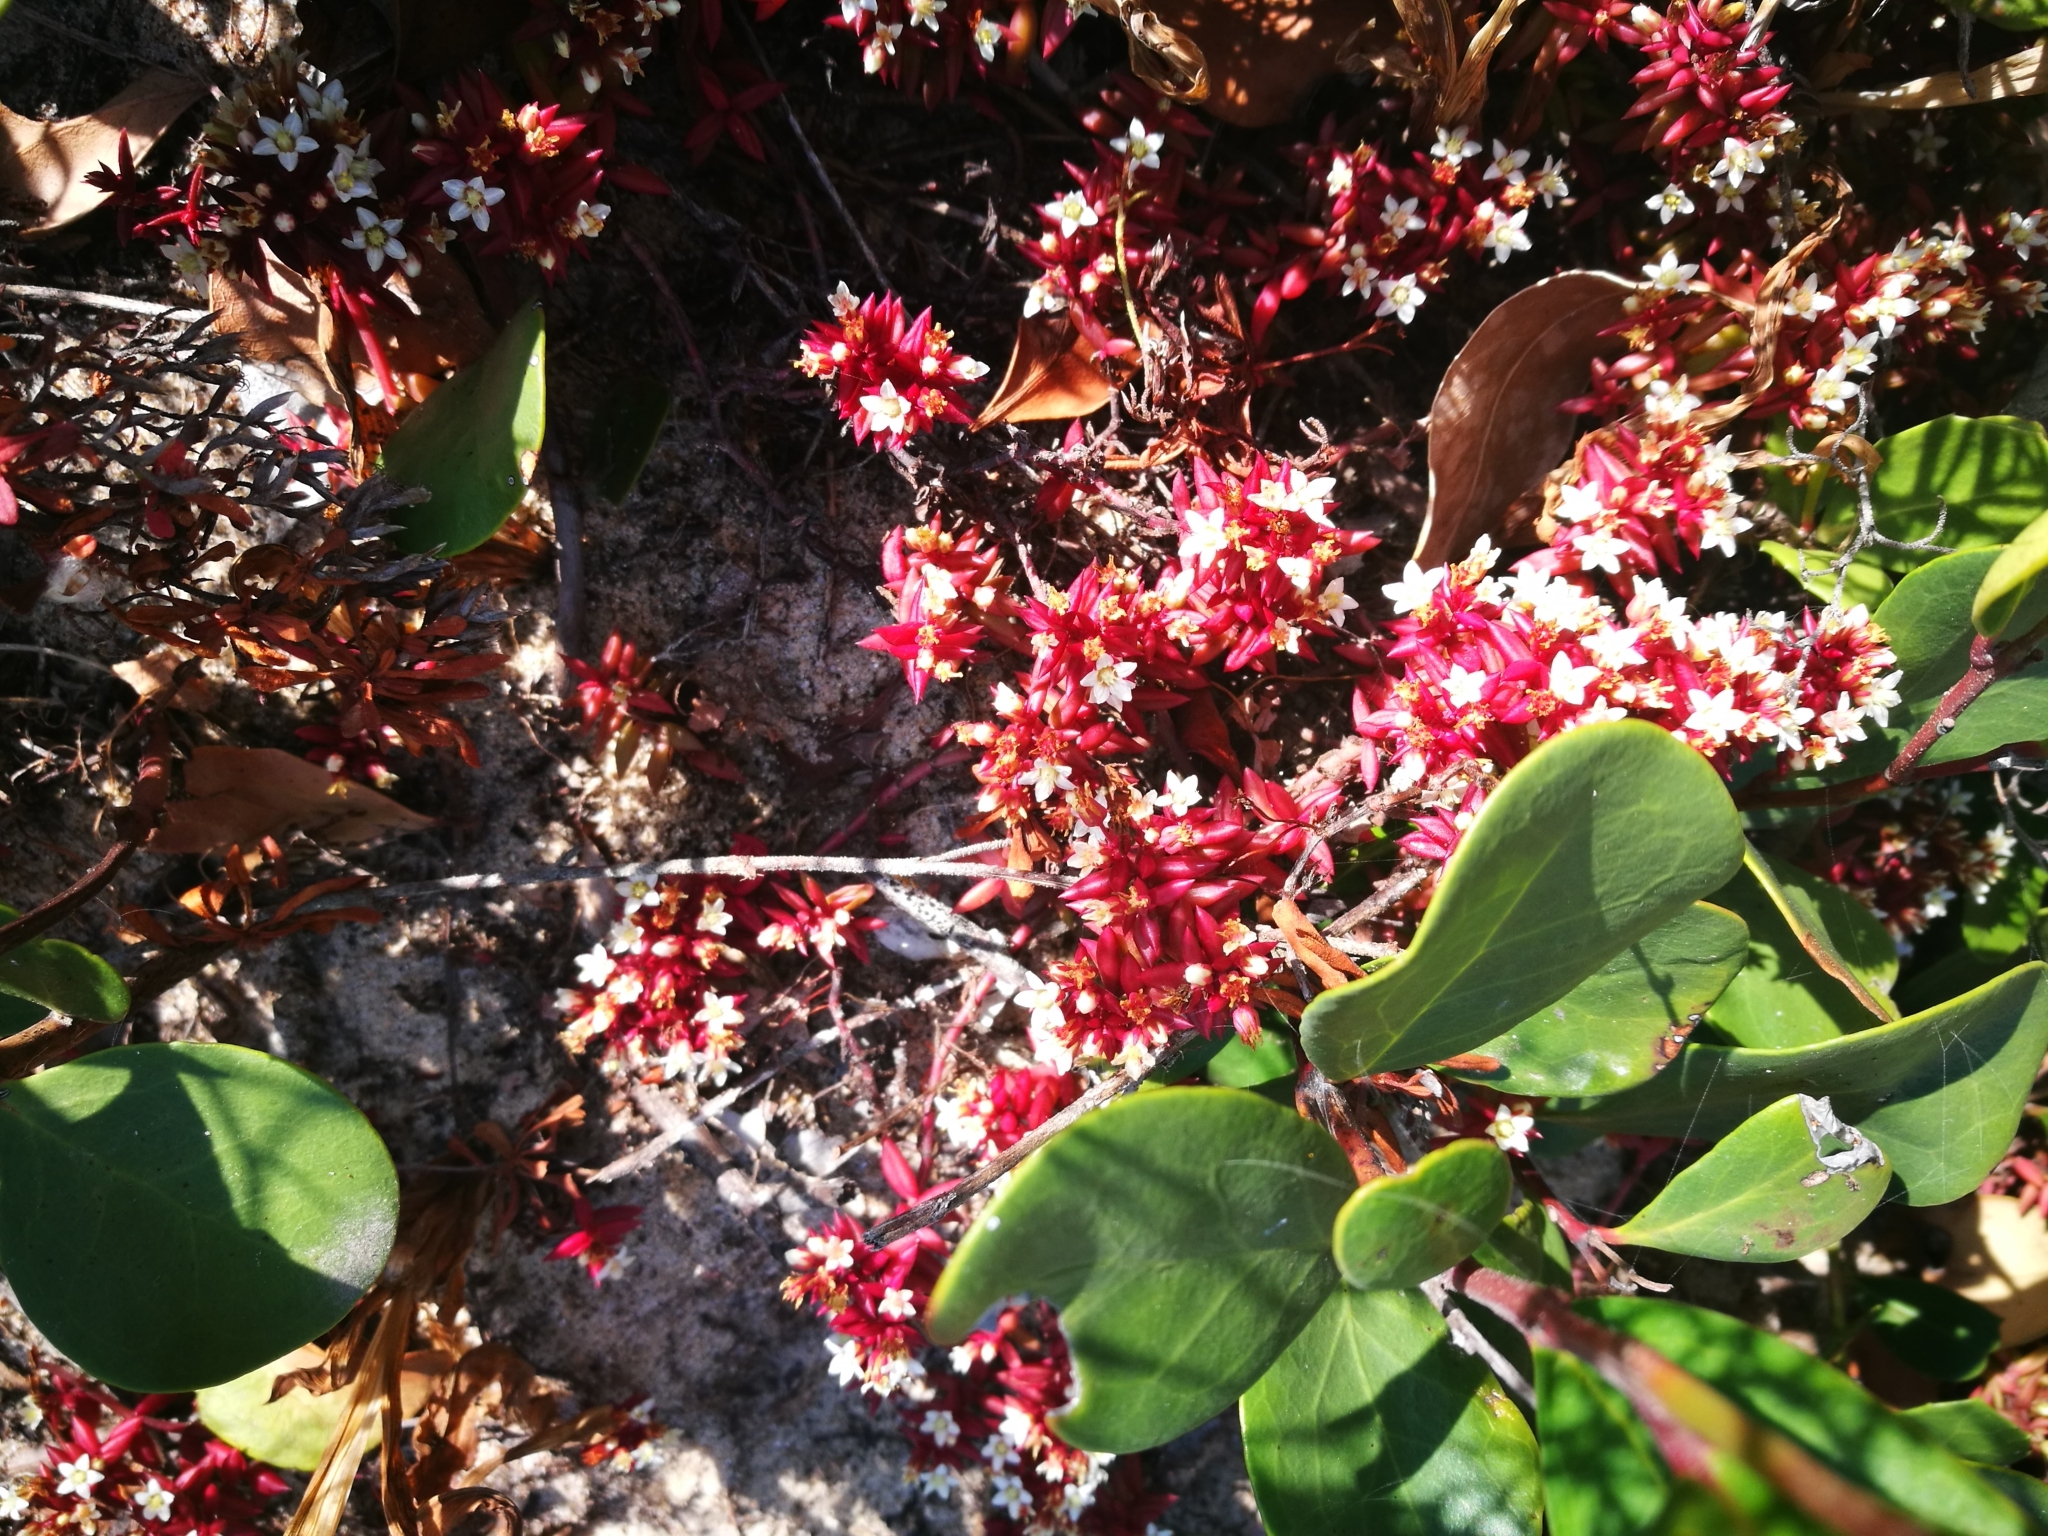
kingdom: Plantae
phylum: Tracheophyta
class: Magnoliopsida
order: Saxifragales
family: Crassulaceae
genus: Crassula
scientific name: Crassula expansa
